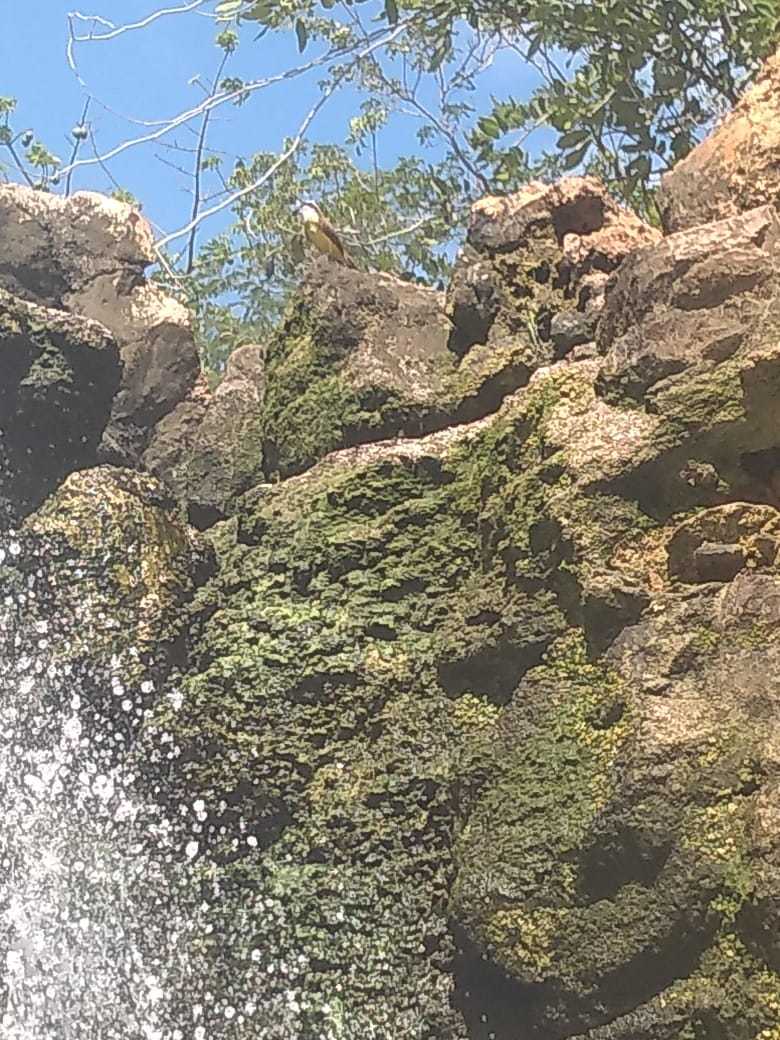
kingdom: Animalia
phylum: Chordata
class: Aves
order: Passeriformes
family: Tyrannidae
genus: Pitangus
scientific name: Pitangus sulphuratus
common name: Great kiskadee
